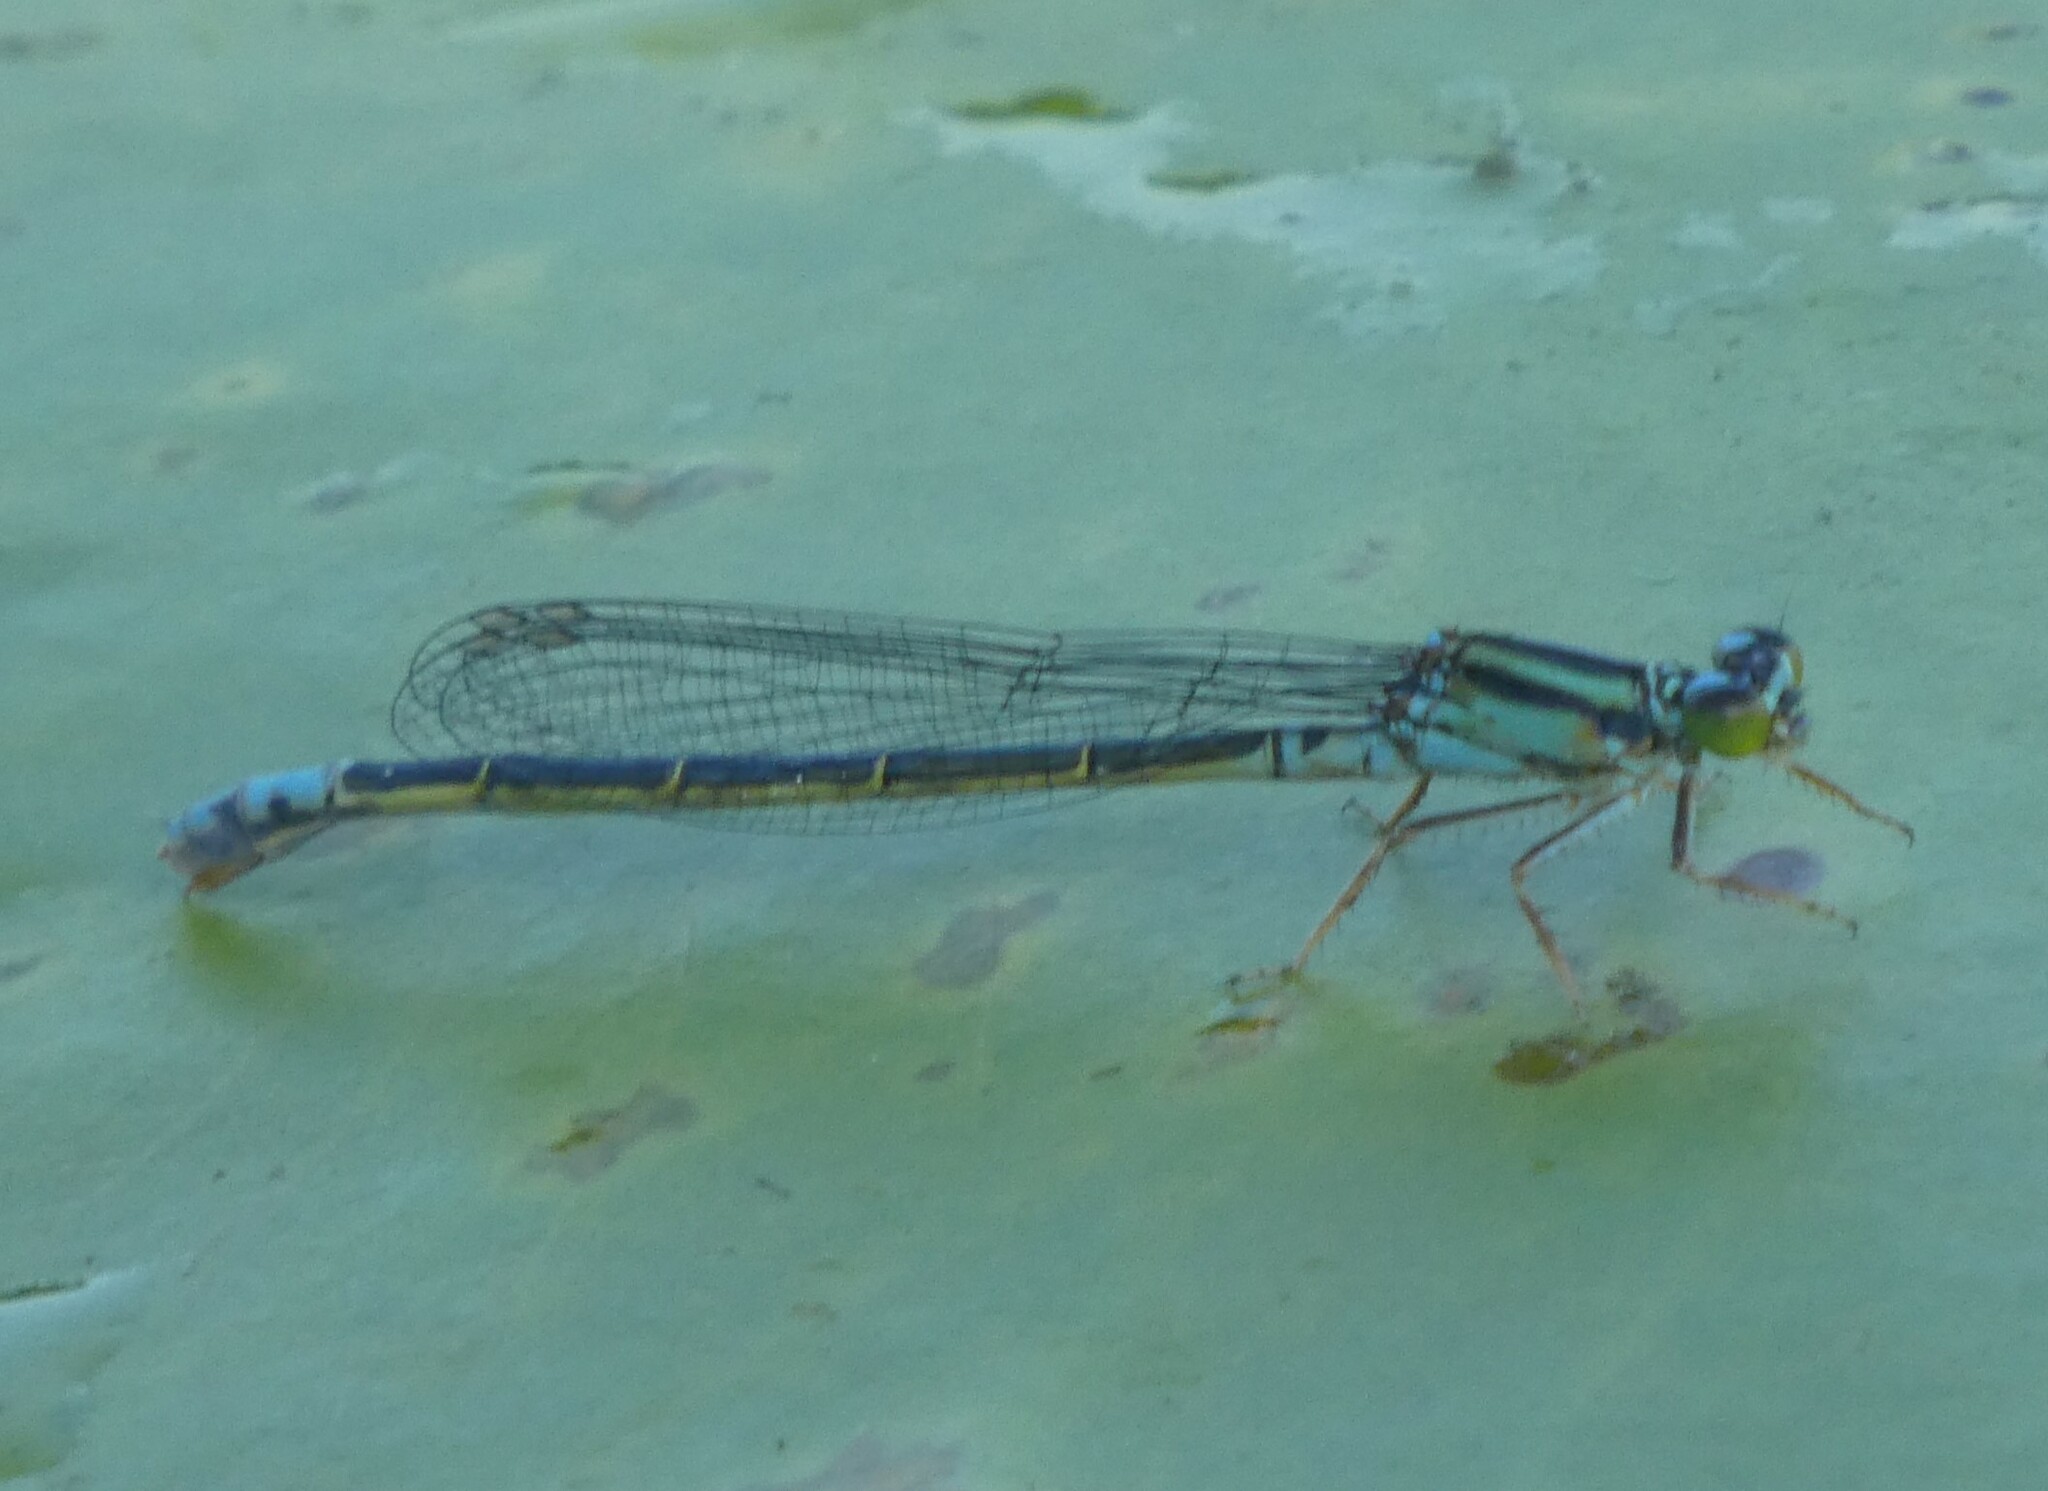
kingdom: Animalia
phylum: Arthropoda
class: Insecta
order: Odonata
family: Coenagrionidae
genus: Ischnura
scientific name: Ischnura kellicotti
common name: Lilypad forktail
